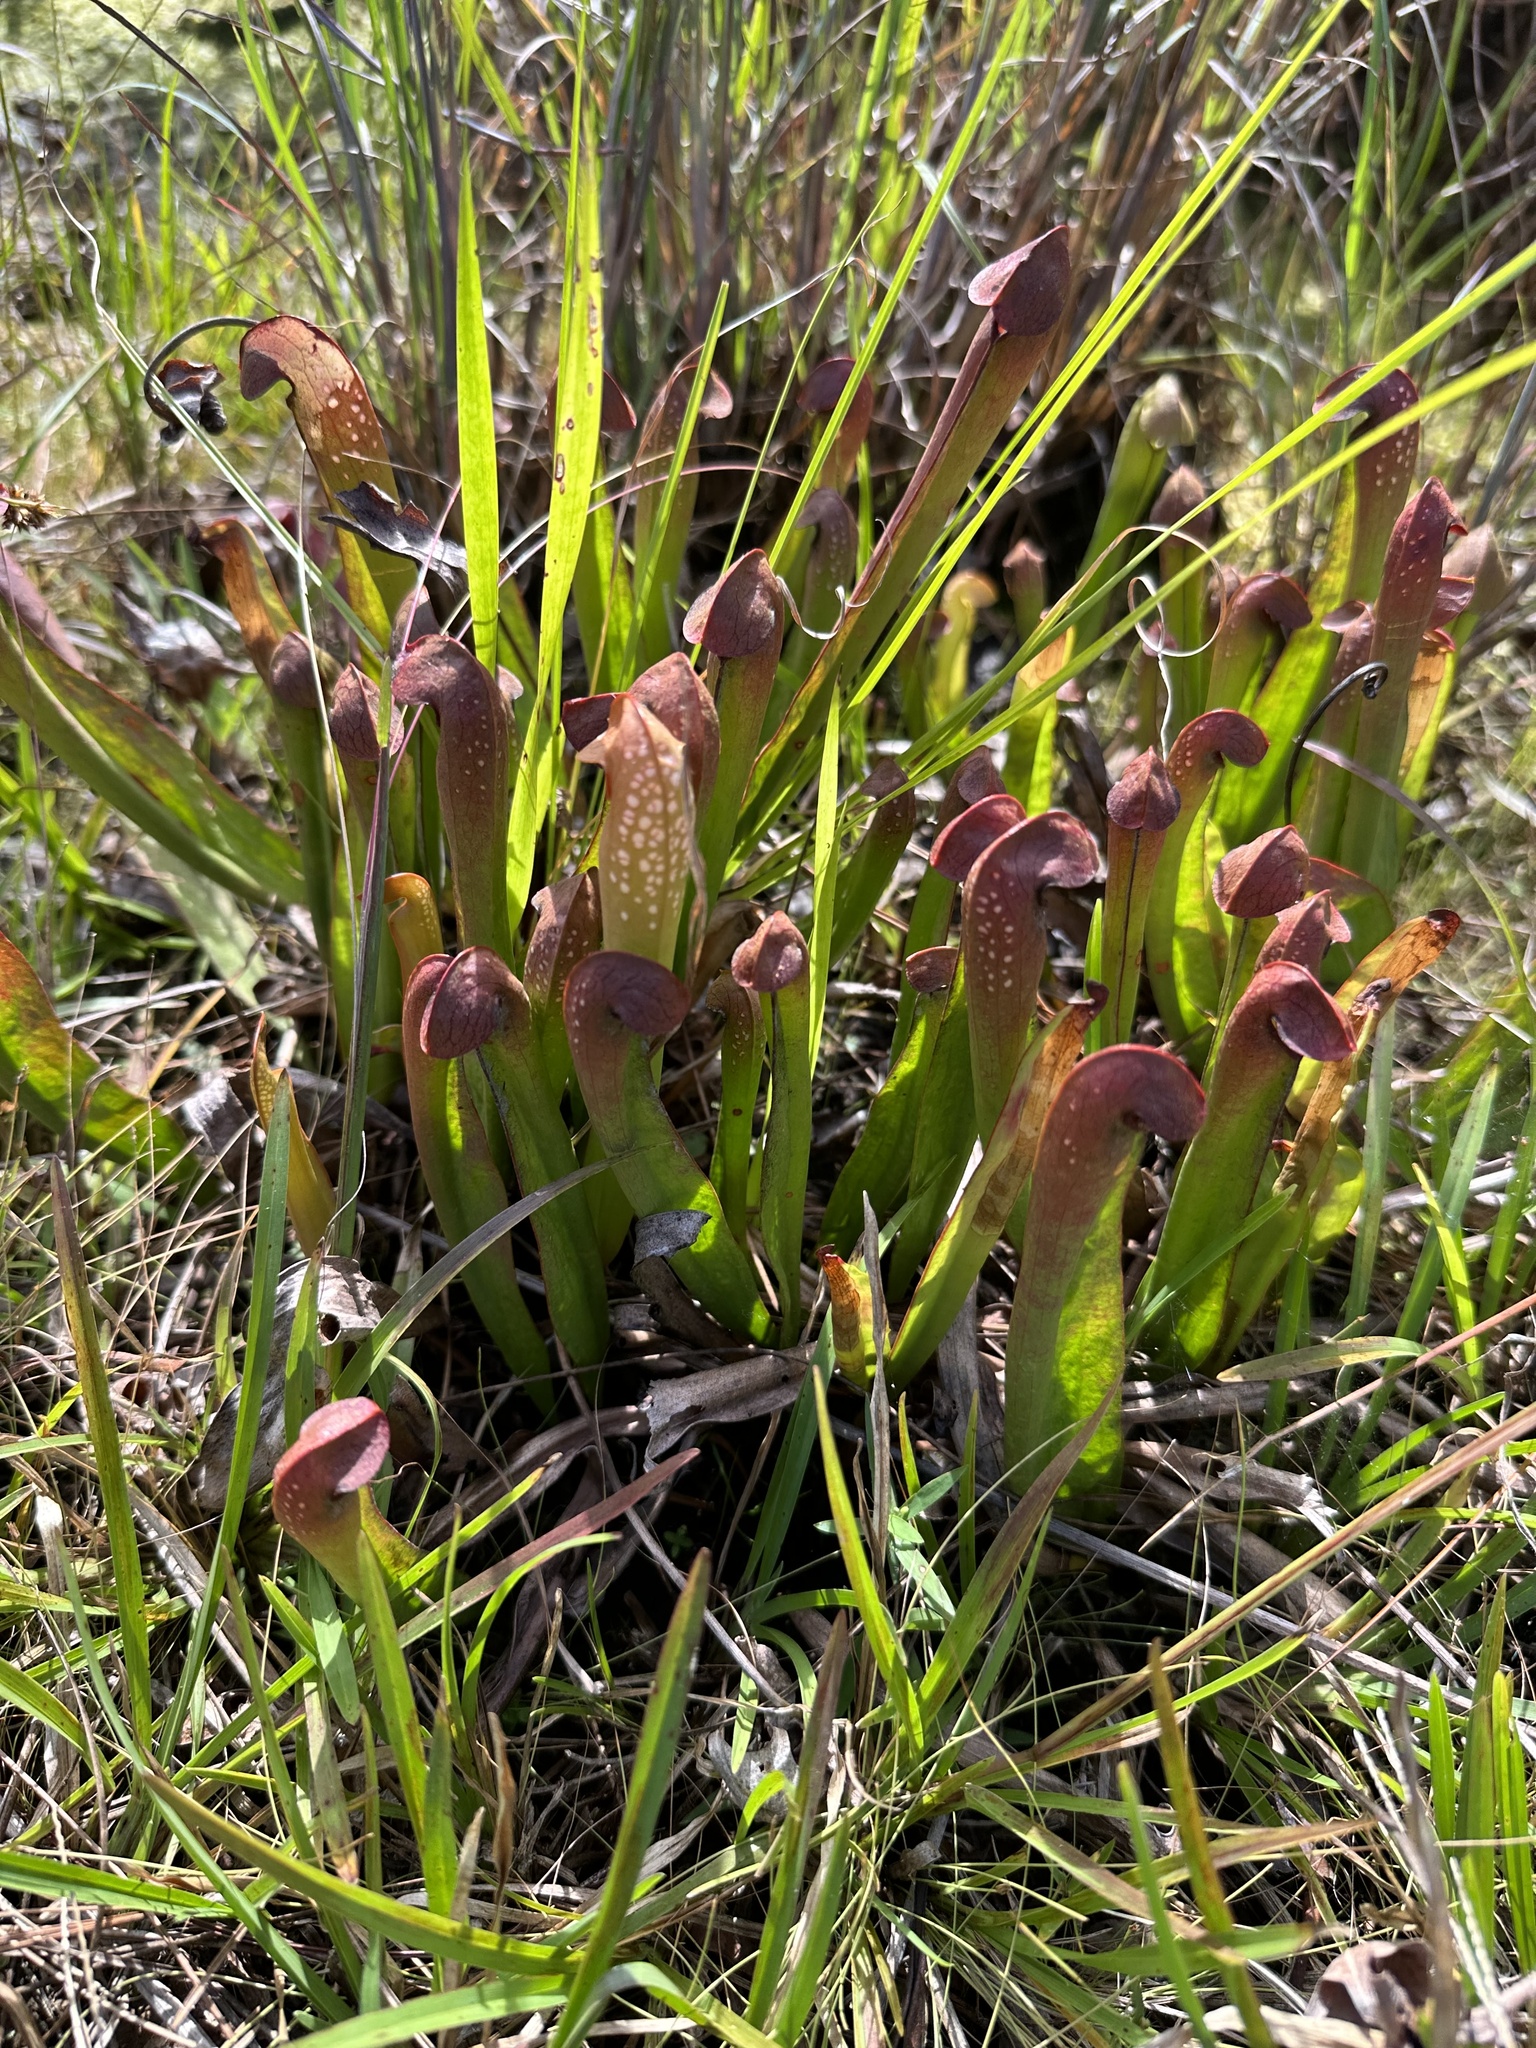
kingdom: Plantae
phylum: Tracheophyta
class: Magnoliopsida
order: Ericales
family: Sarraceniaceae
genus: Sarracenia
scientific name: Sarracenia minor
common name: Rainhat-trumpet
